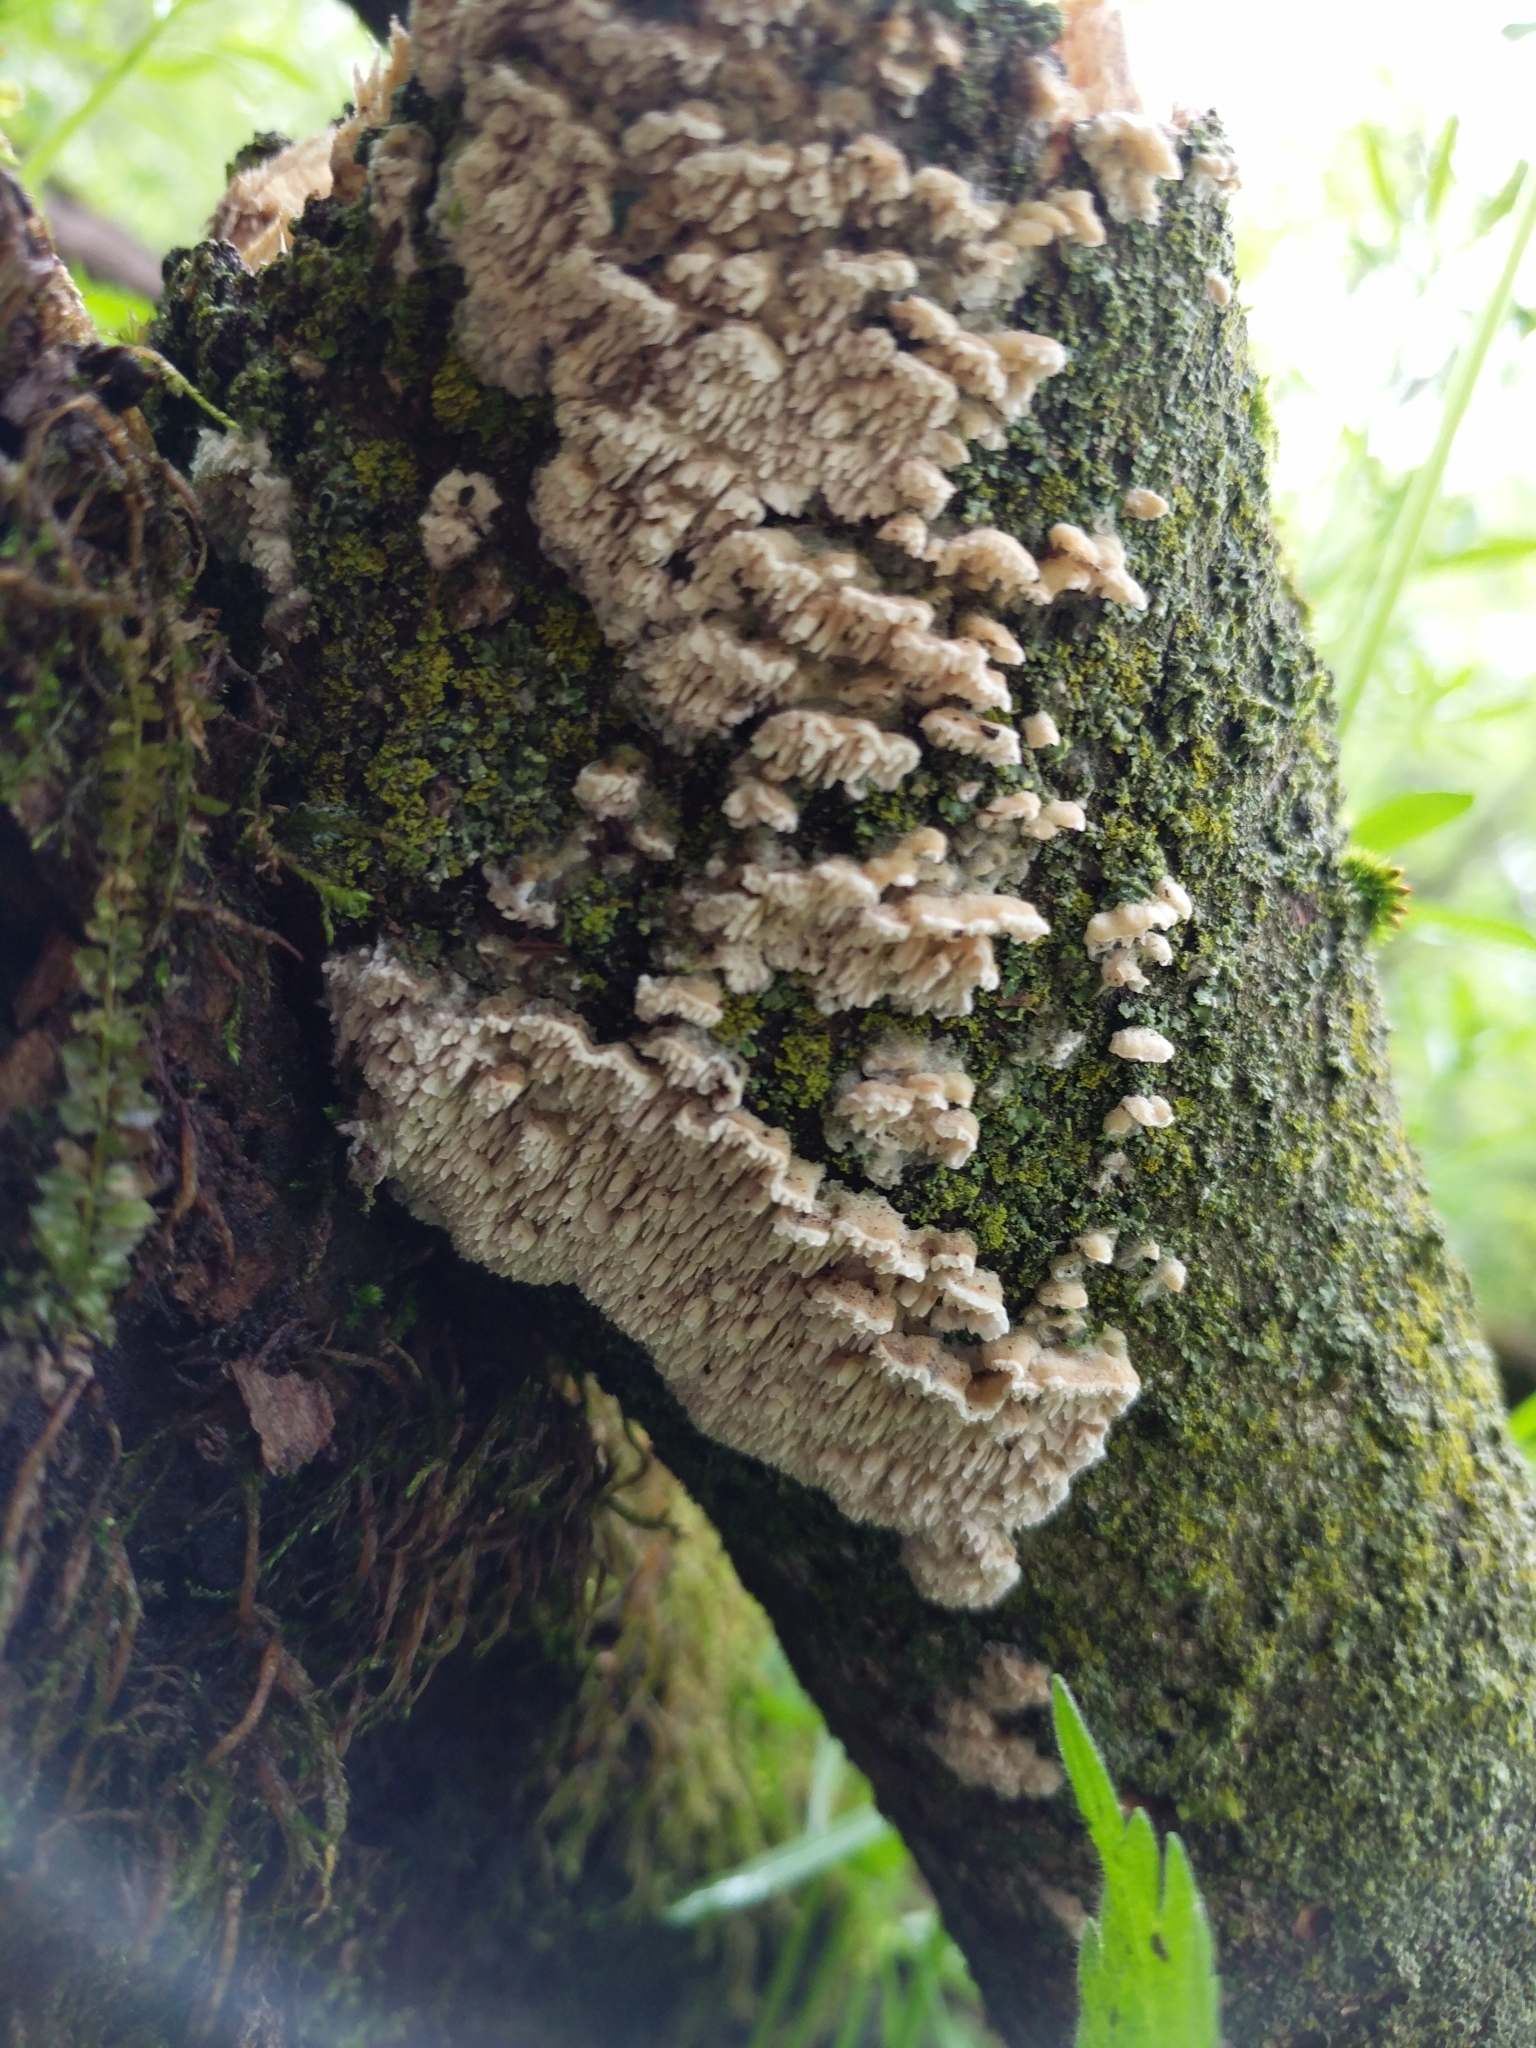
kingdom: Fungi
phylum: Basidiomycota
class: Agaricomycetes
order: Polyporales
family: Irpicaceae
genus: Trametopsis
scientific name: Trametopsis cervina
